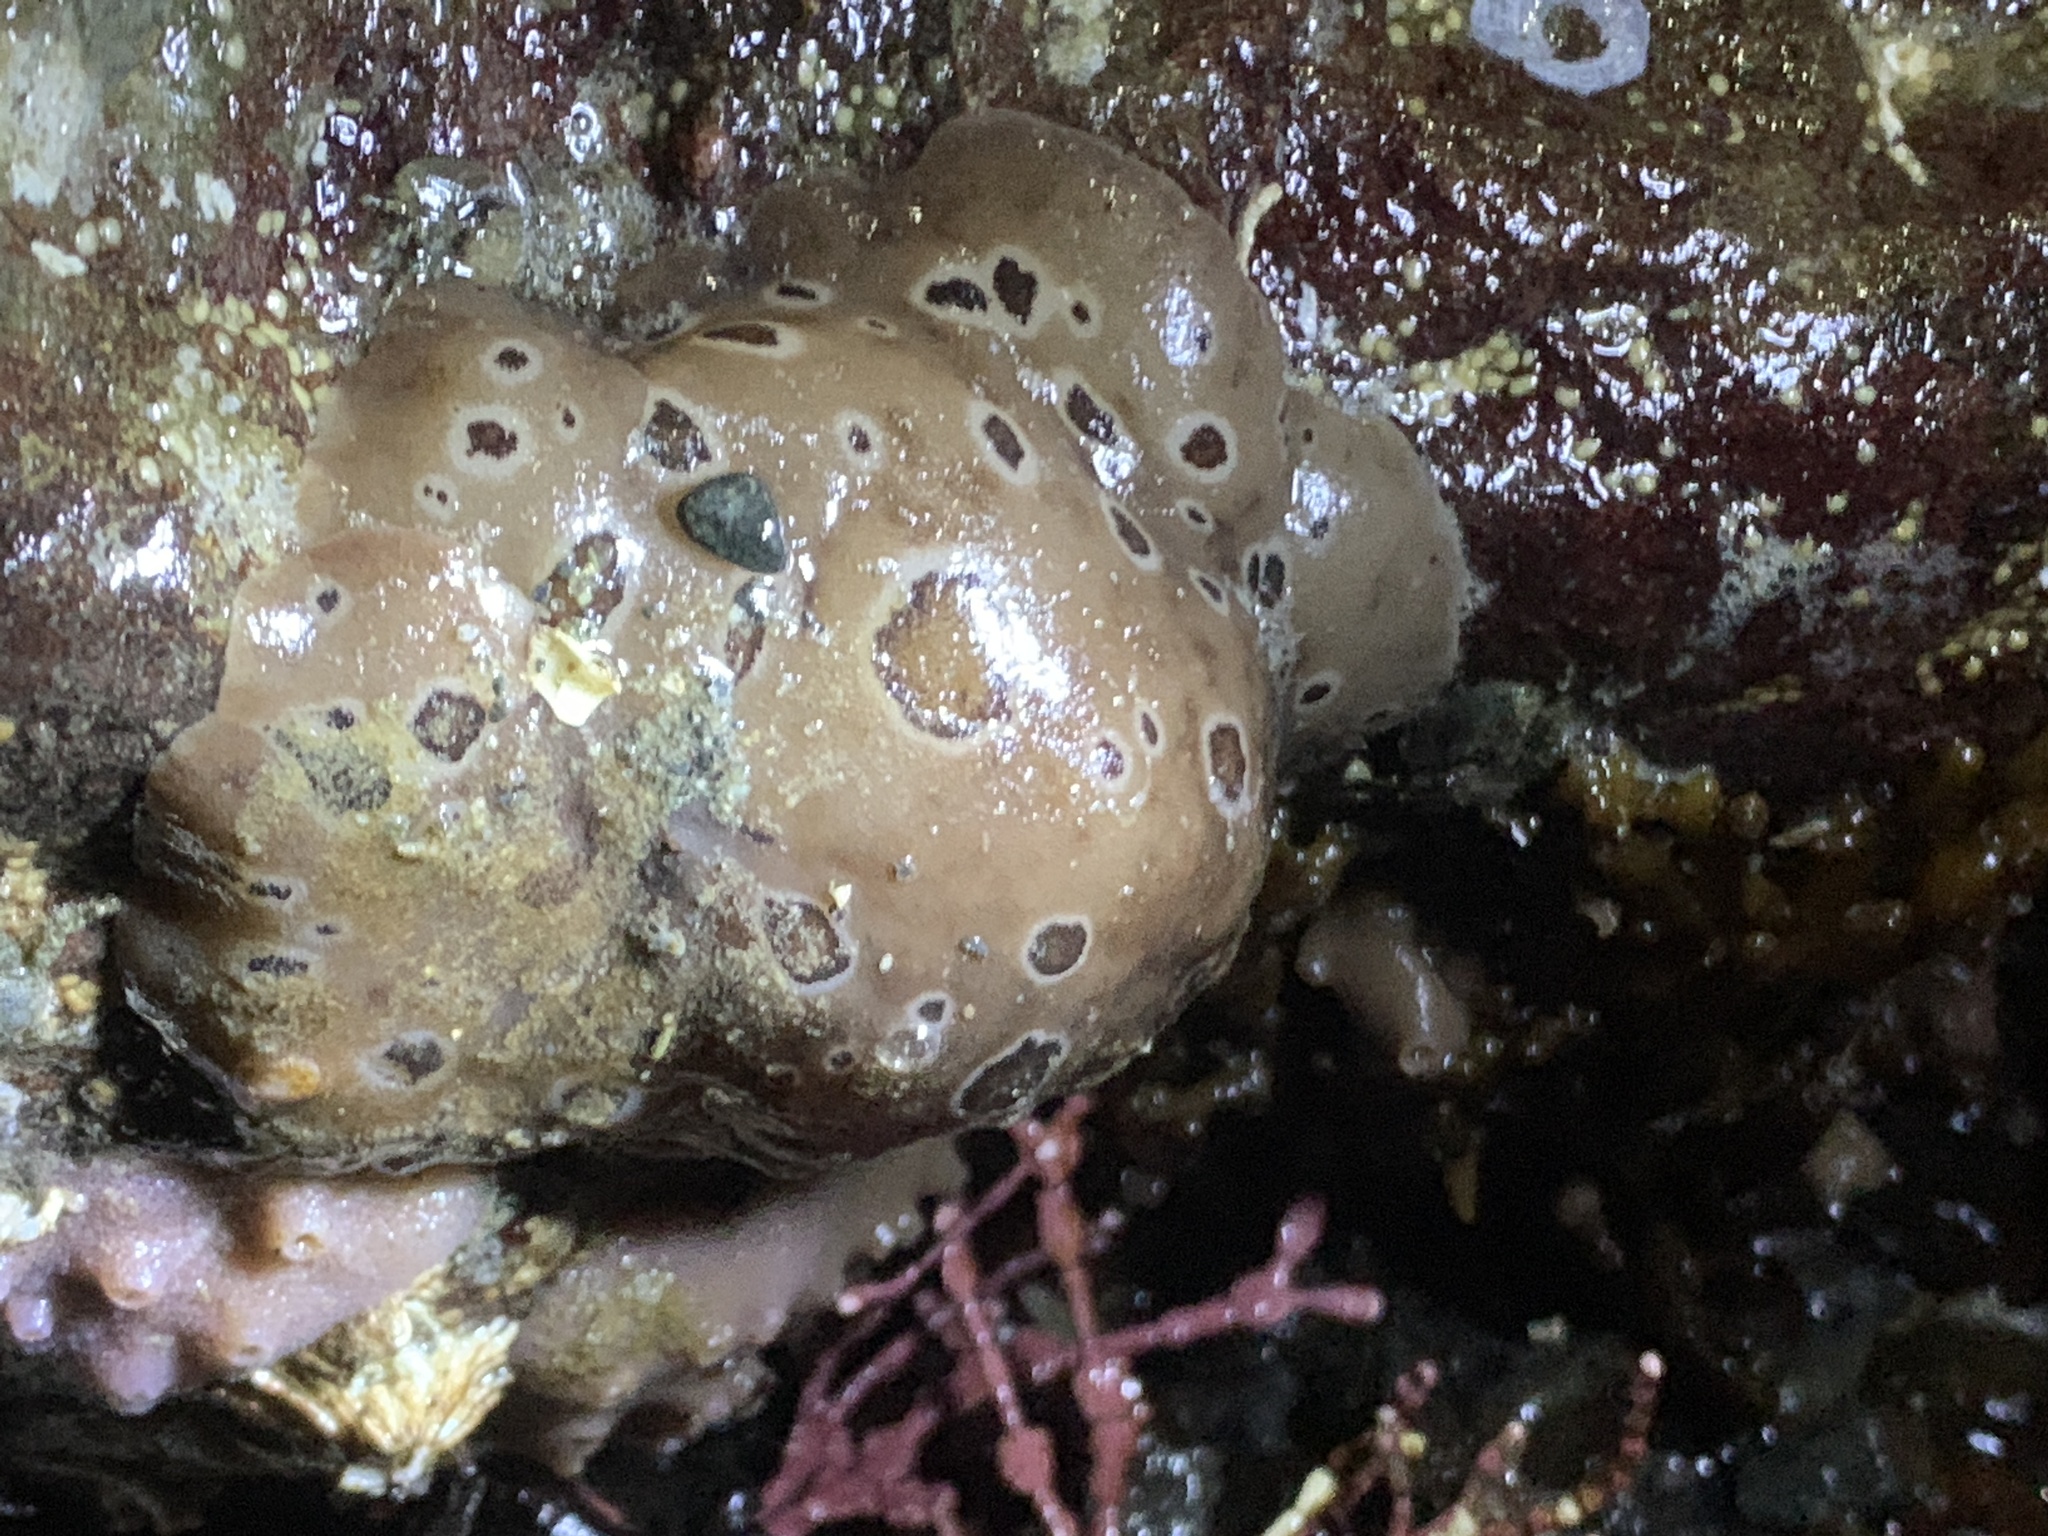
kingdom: Animalia
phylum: Mollusca
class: Gastropoda
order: Nudibranchia
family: Discodorididae
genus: Diaulula
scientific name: Diaulula odonoghuei
